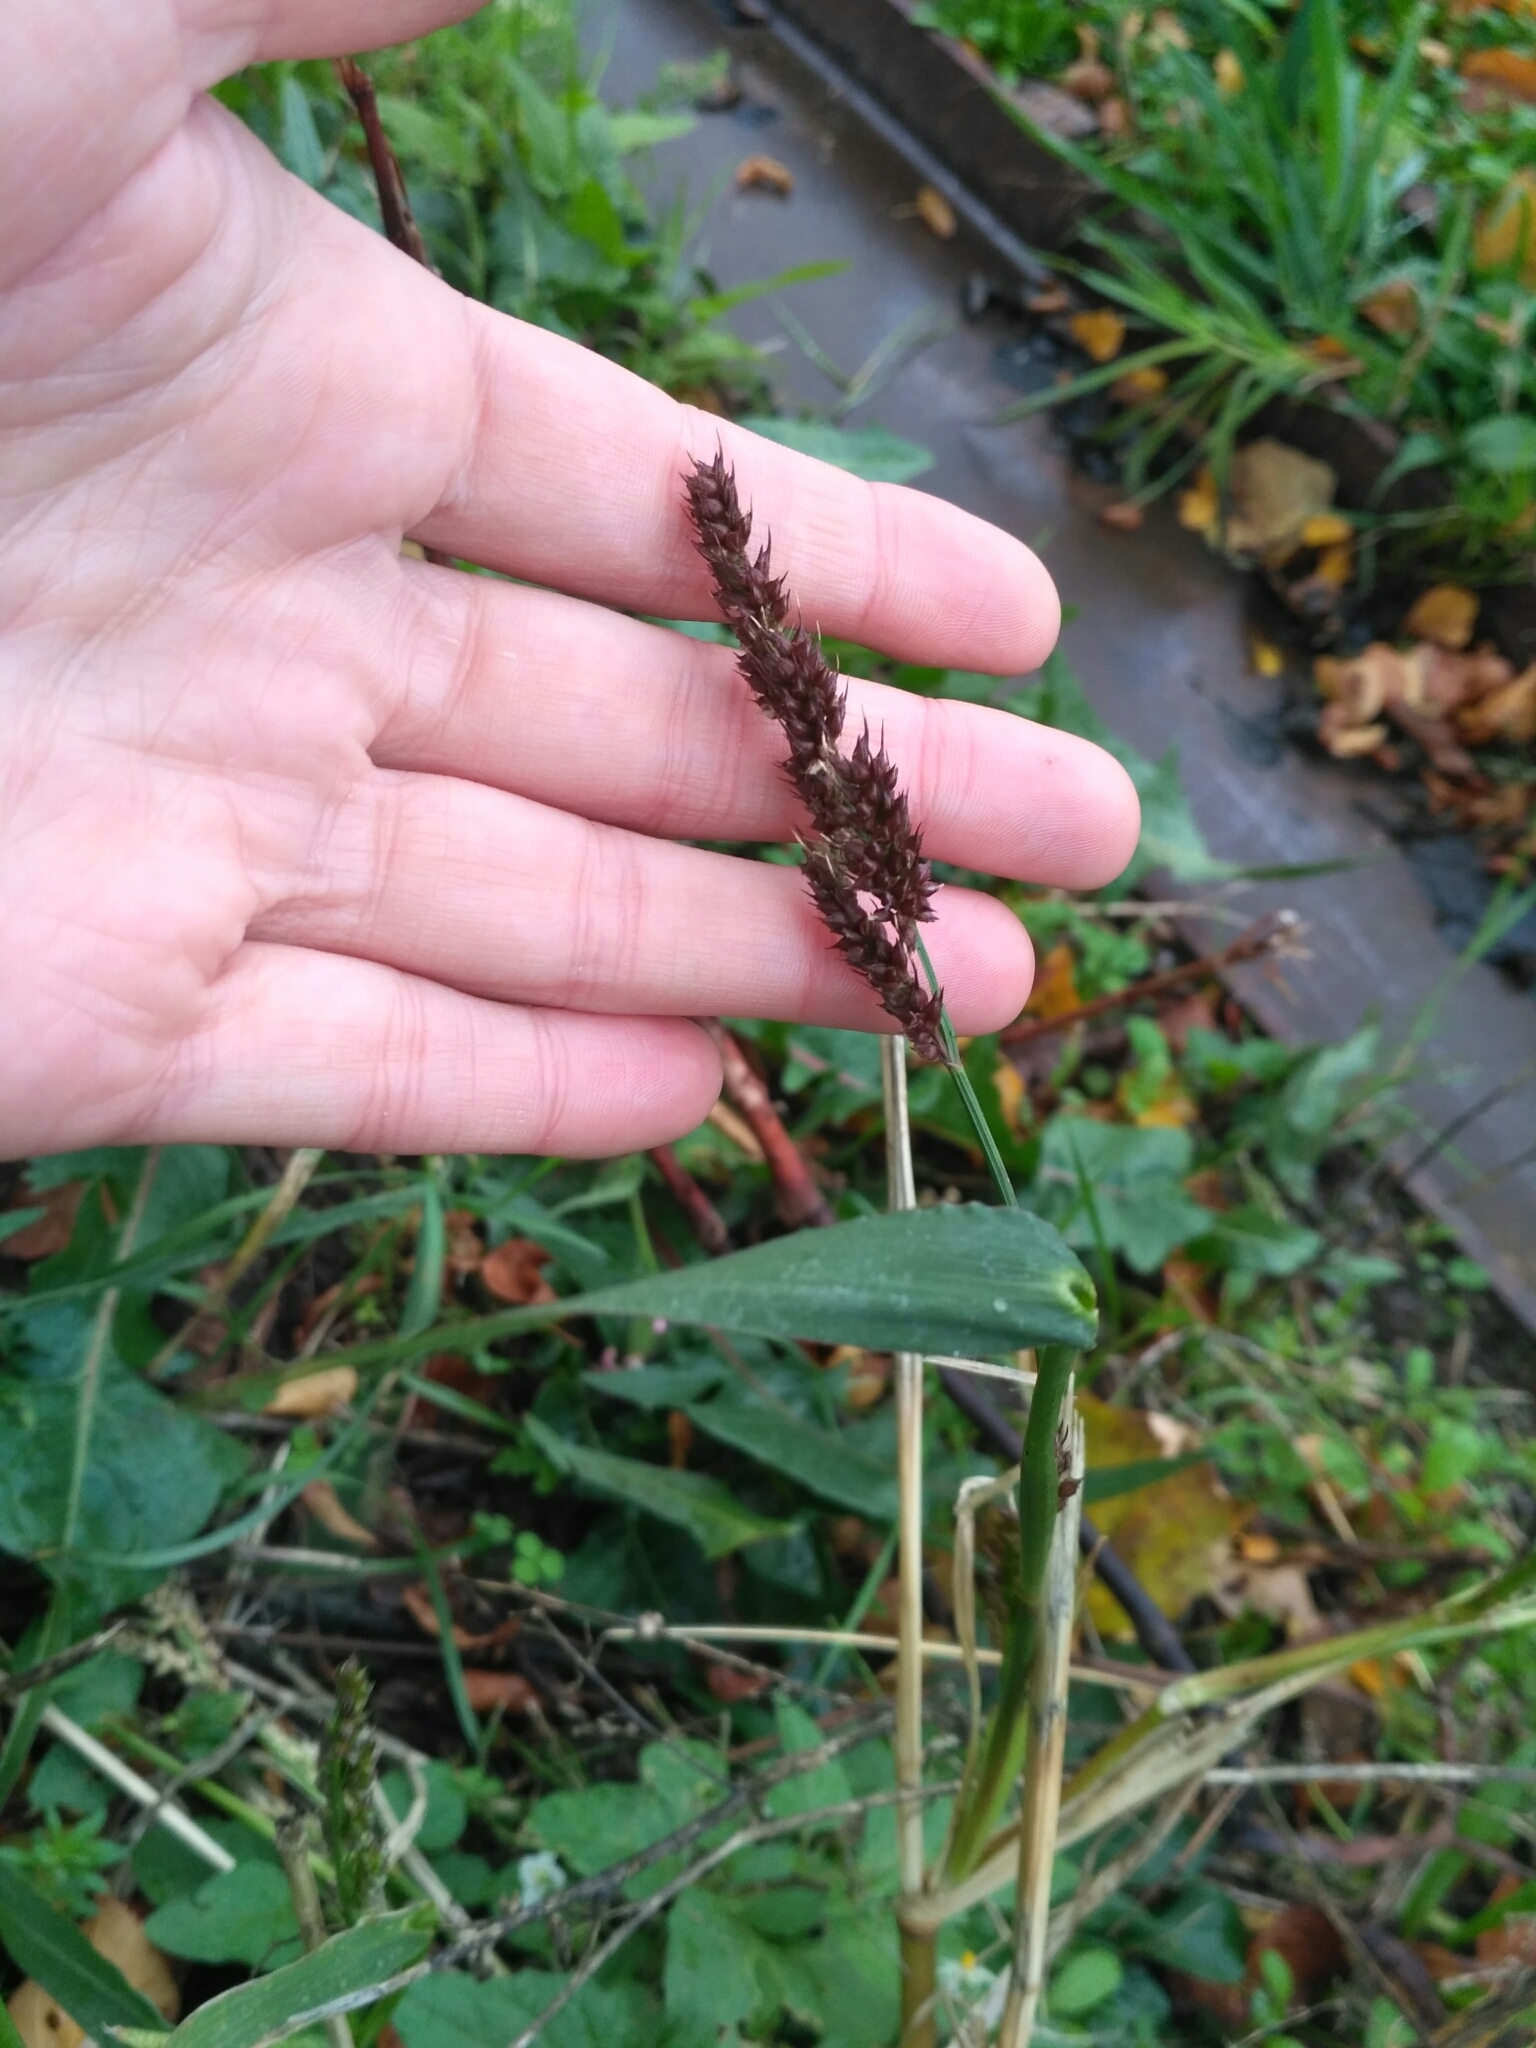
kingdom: Plantae
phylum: Tracheophyta
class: Liliopsida
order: Poales
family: Poaceae
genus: Echinochloa
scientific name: Echinochloa crus-galli
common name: Cockspur
